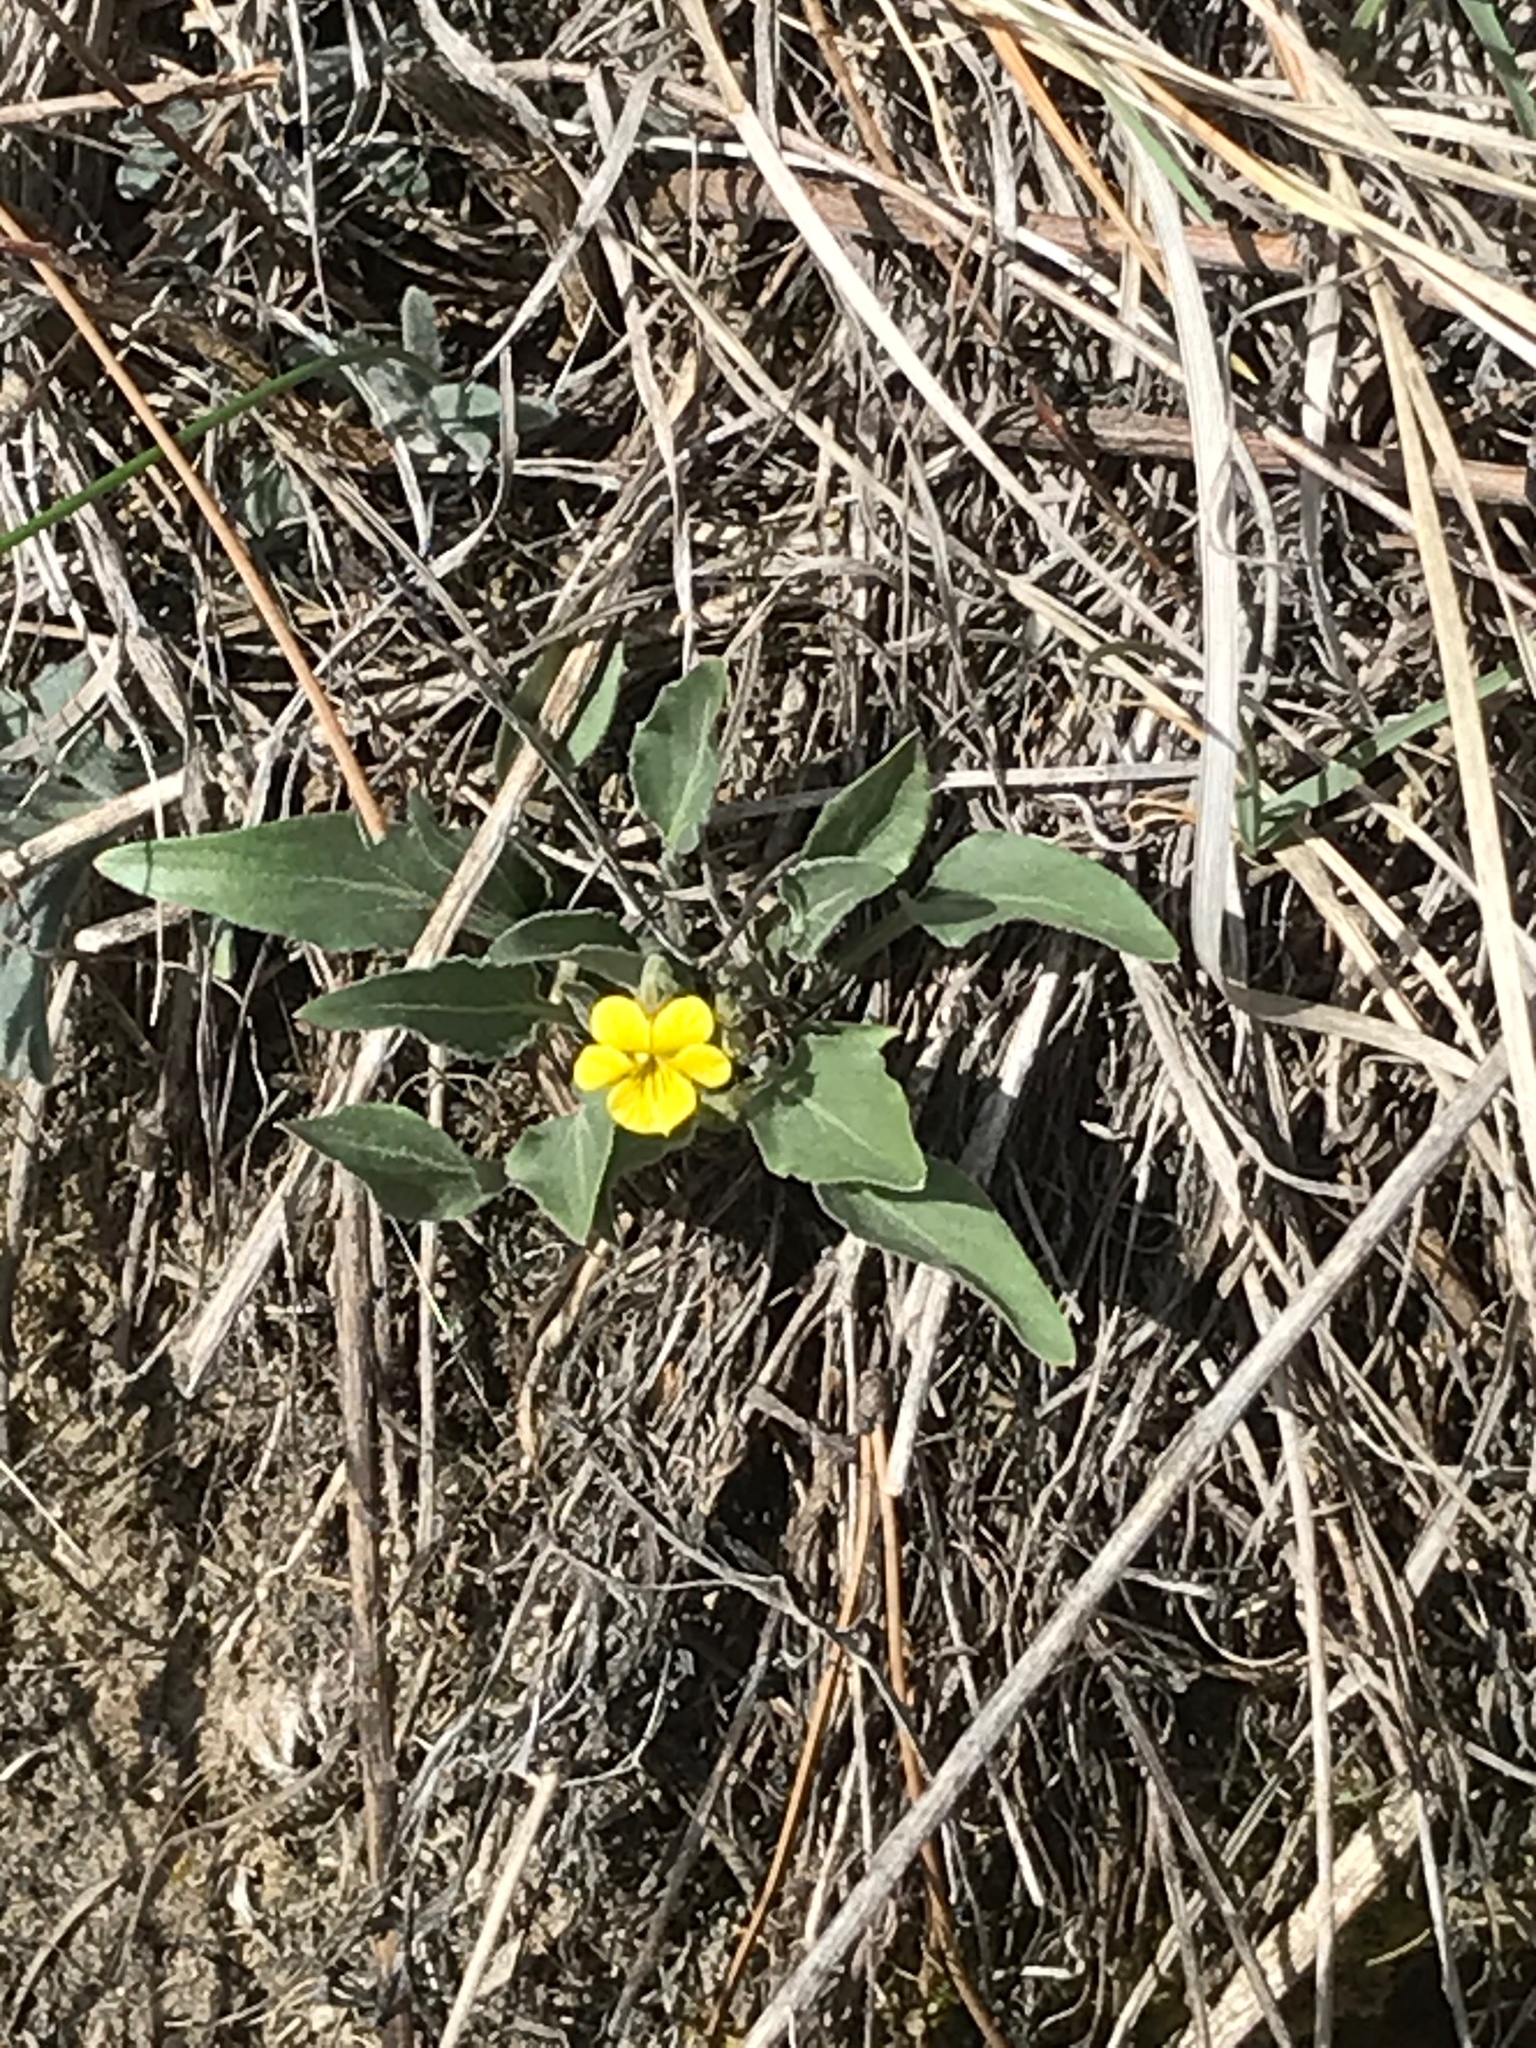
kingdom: Plantae
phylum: Tracheophyta
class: Magnoliopsida
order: Malpighiales
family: Violaceae
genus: Viola
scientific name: Viola nuttallii
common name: Yellow prairie violet
